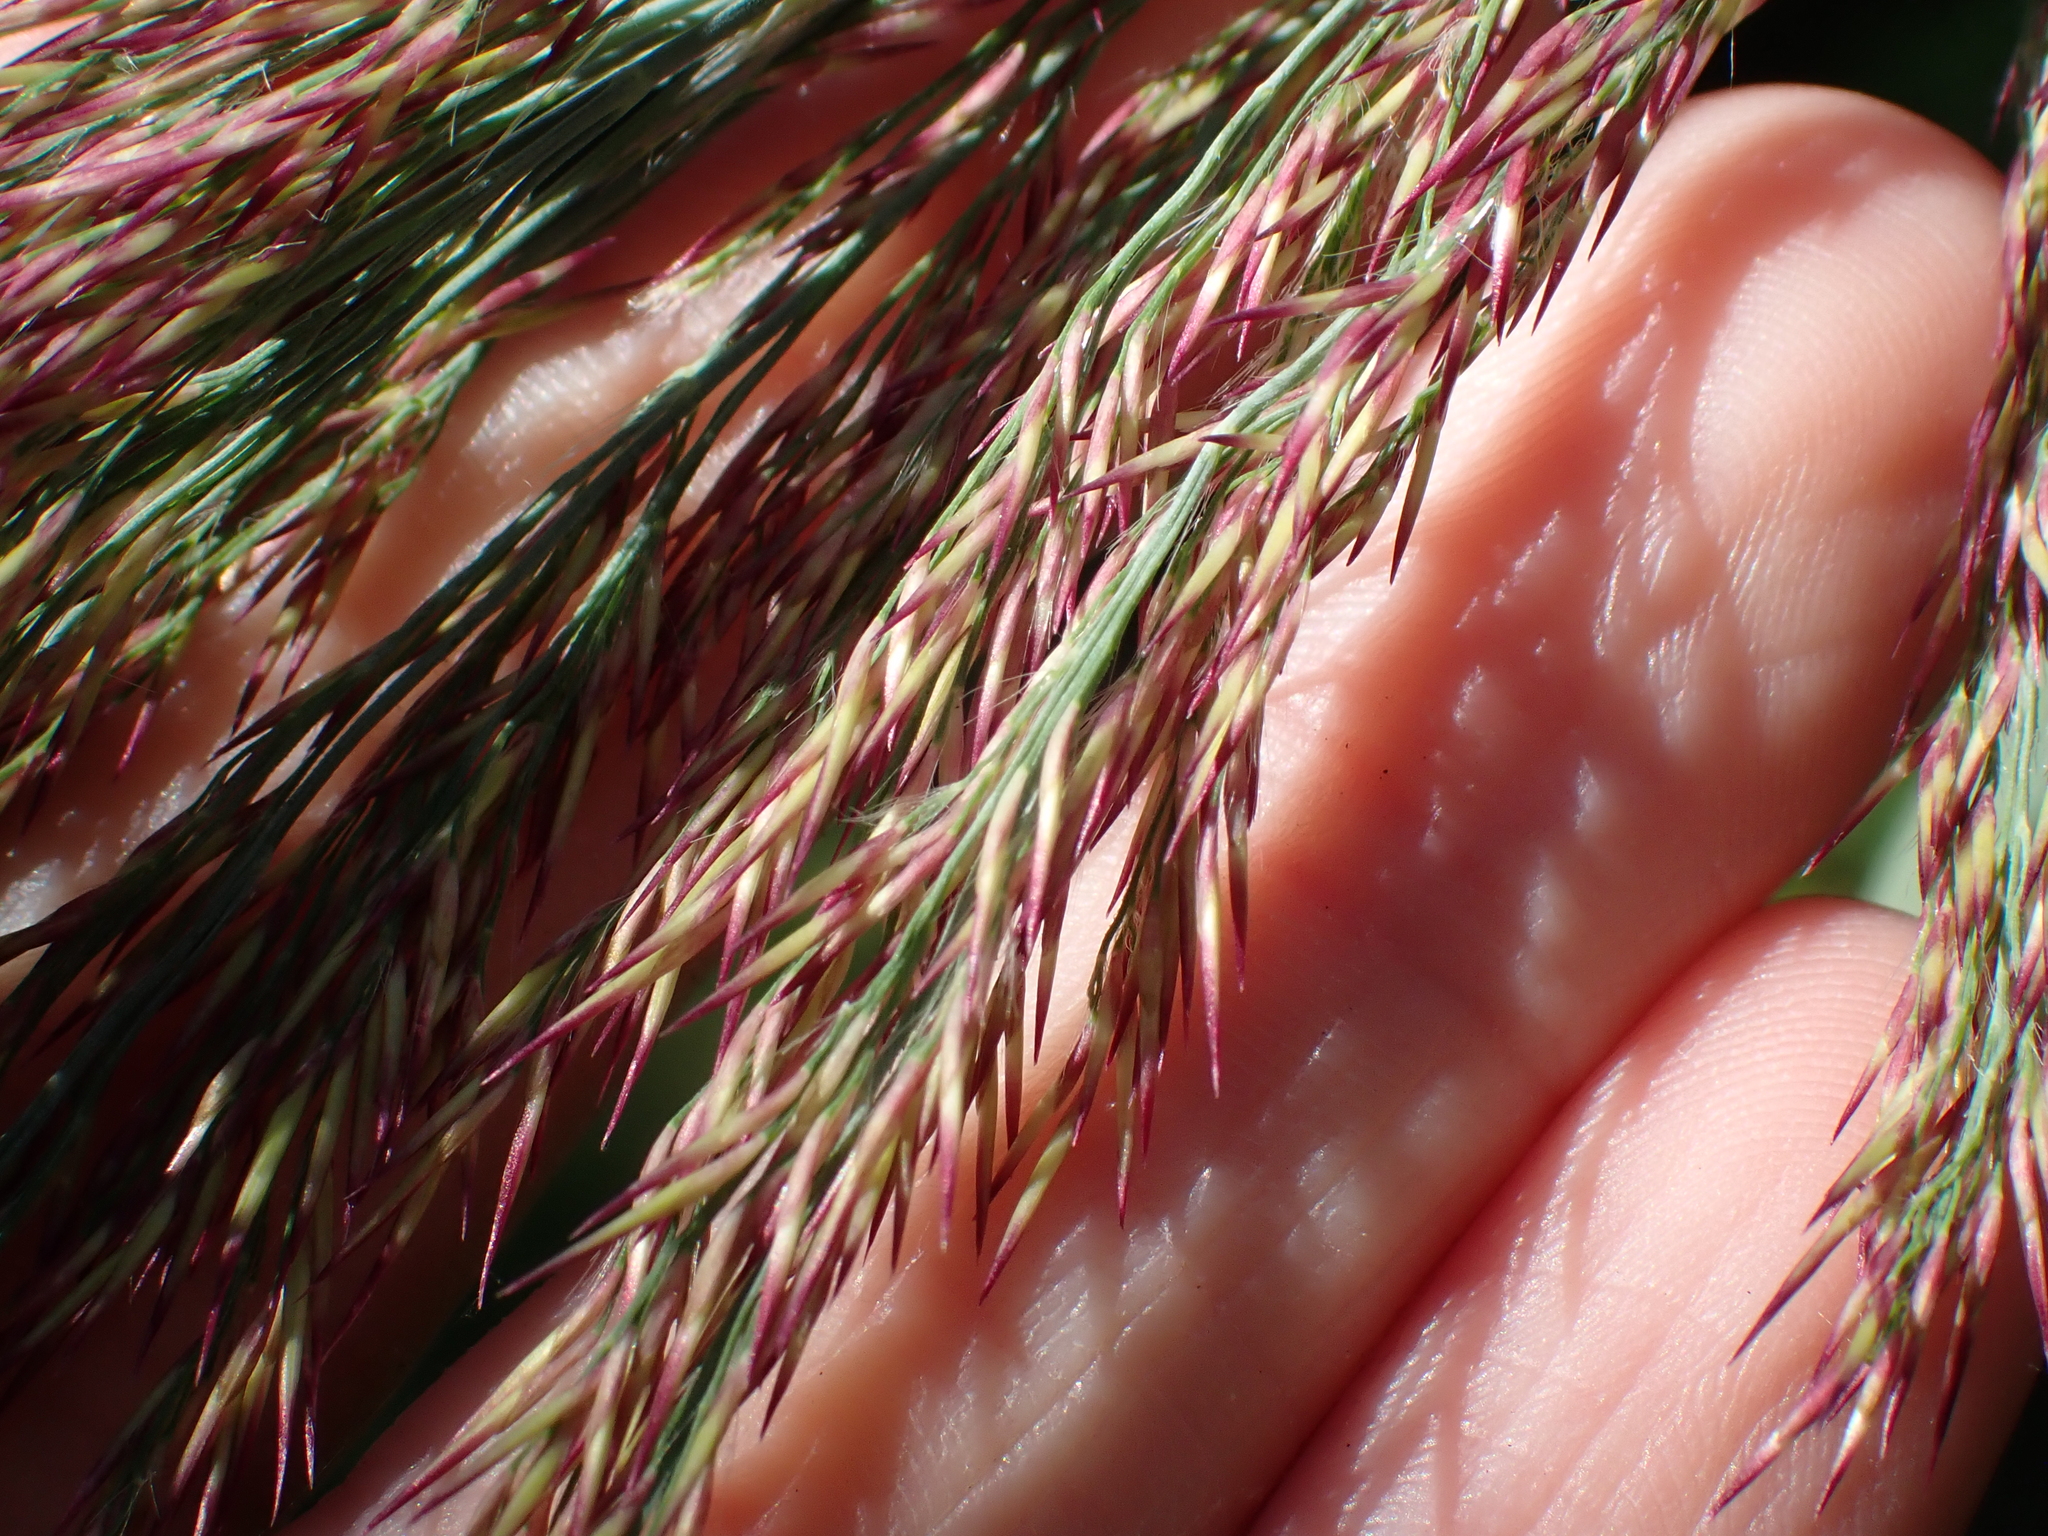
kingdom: Plantae
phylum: Tracheophyta
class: Liliopsida
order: Poales
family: Poaceae
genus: Phragmites
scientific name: Phragmites australis
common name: Common reed
